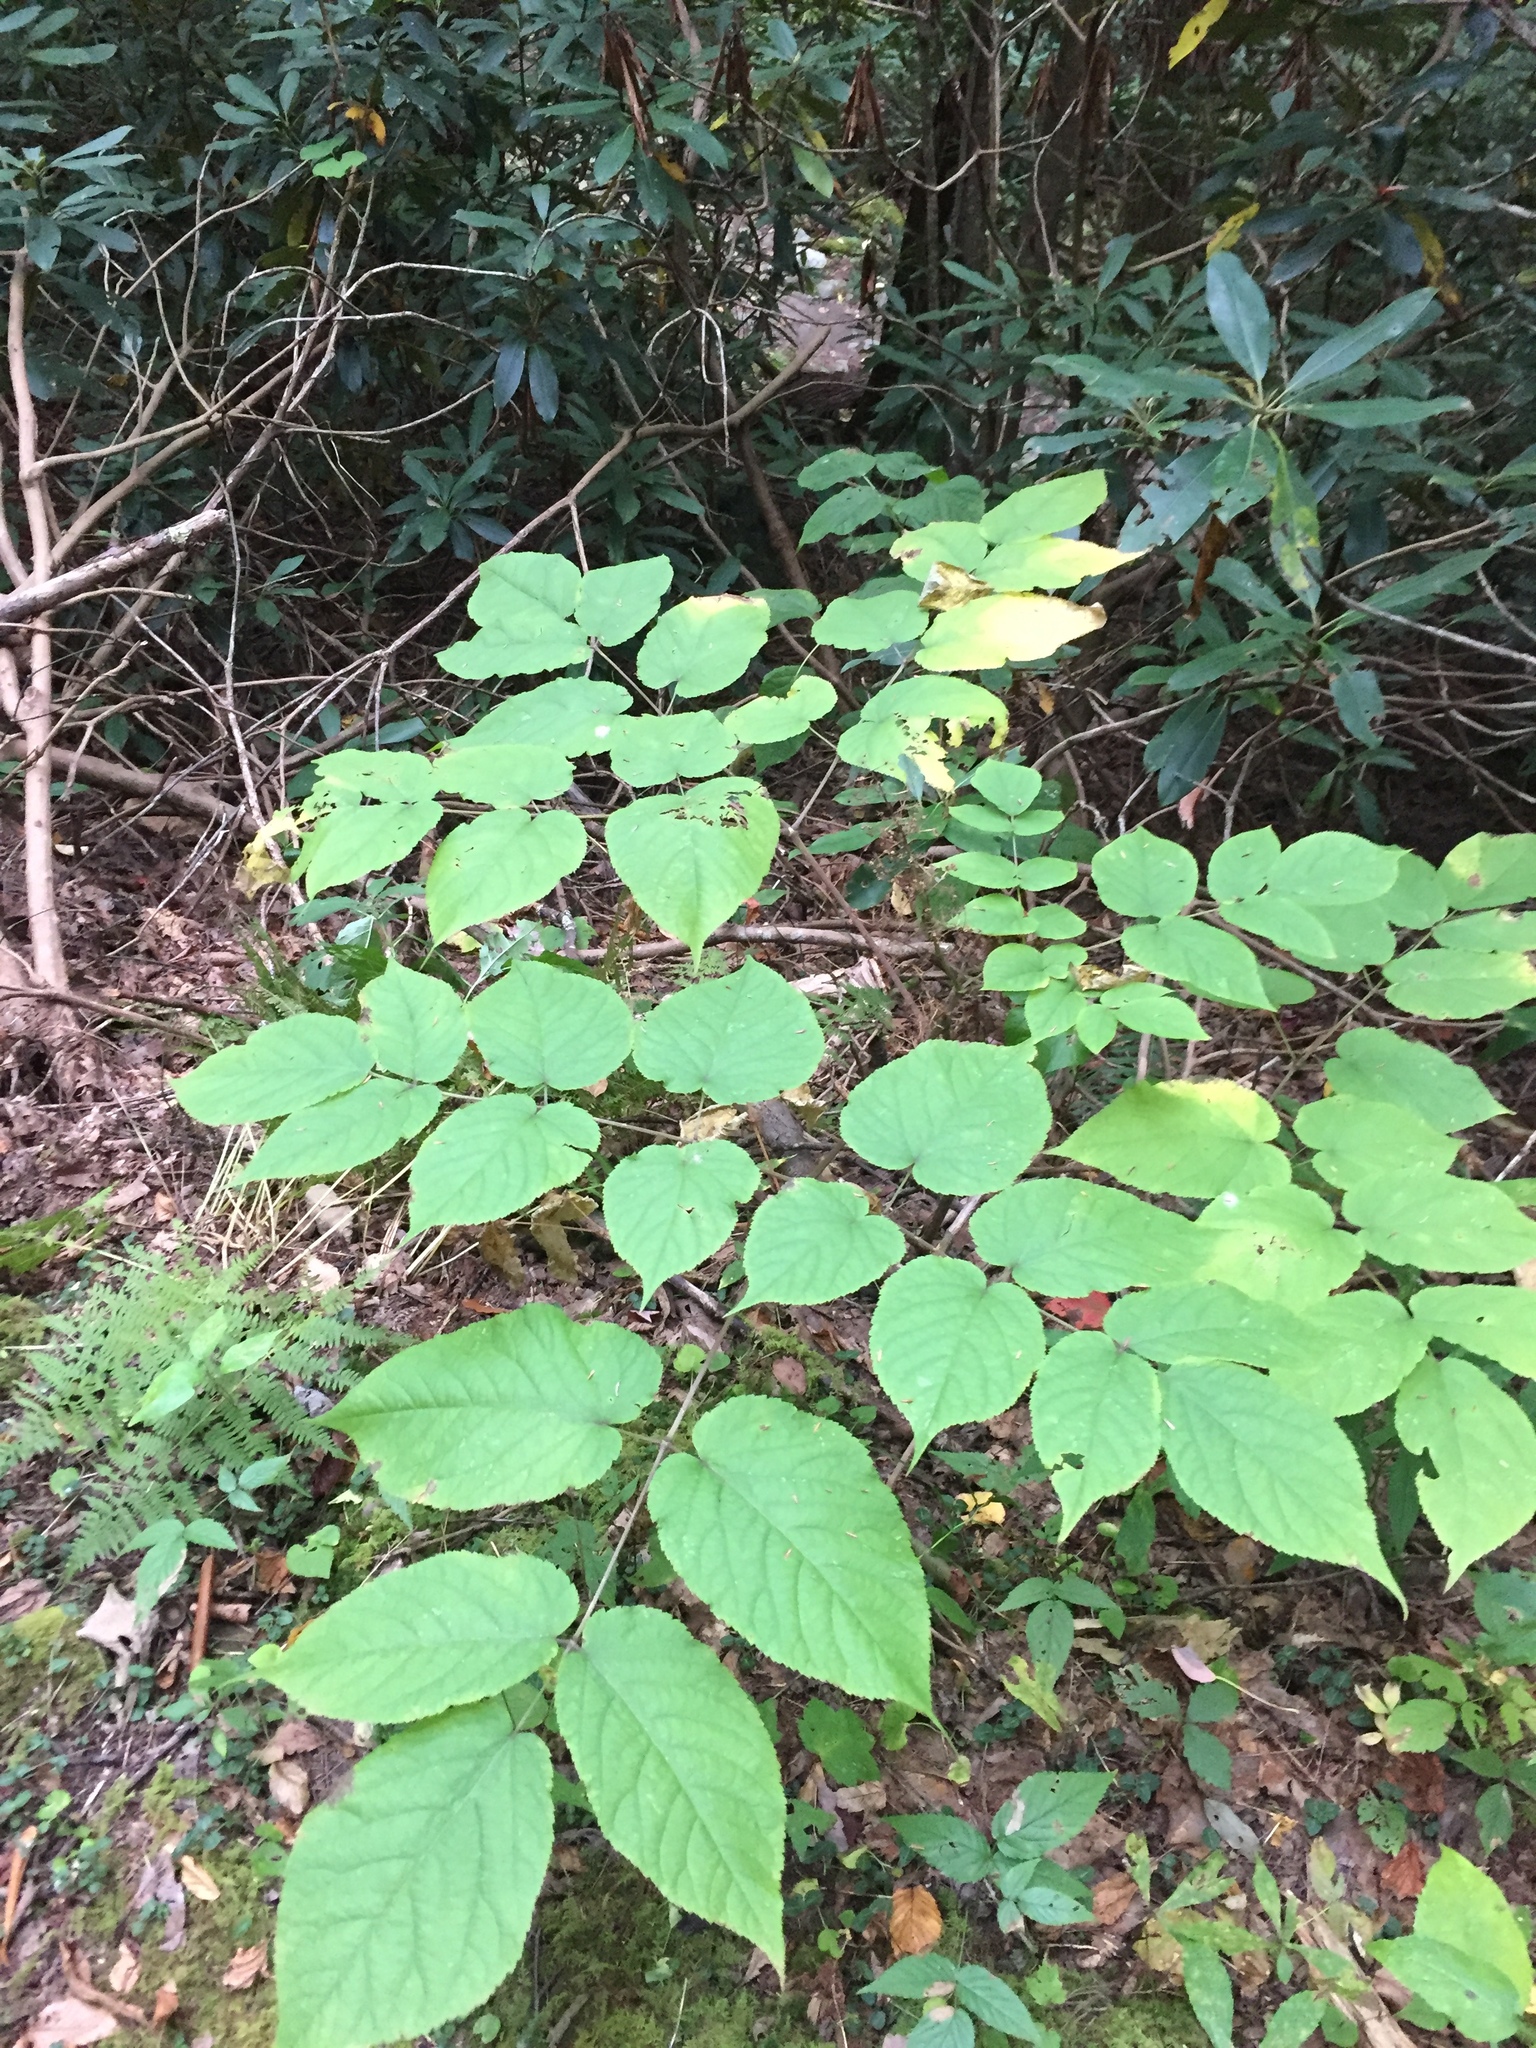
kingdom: Plantae
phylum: Tracheophyta
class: Magnoliopsida
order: Apiales
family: Araliaceae
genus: Aralia
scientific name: Aralia racemosa
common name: American-spikenard
